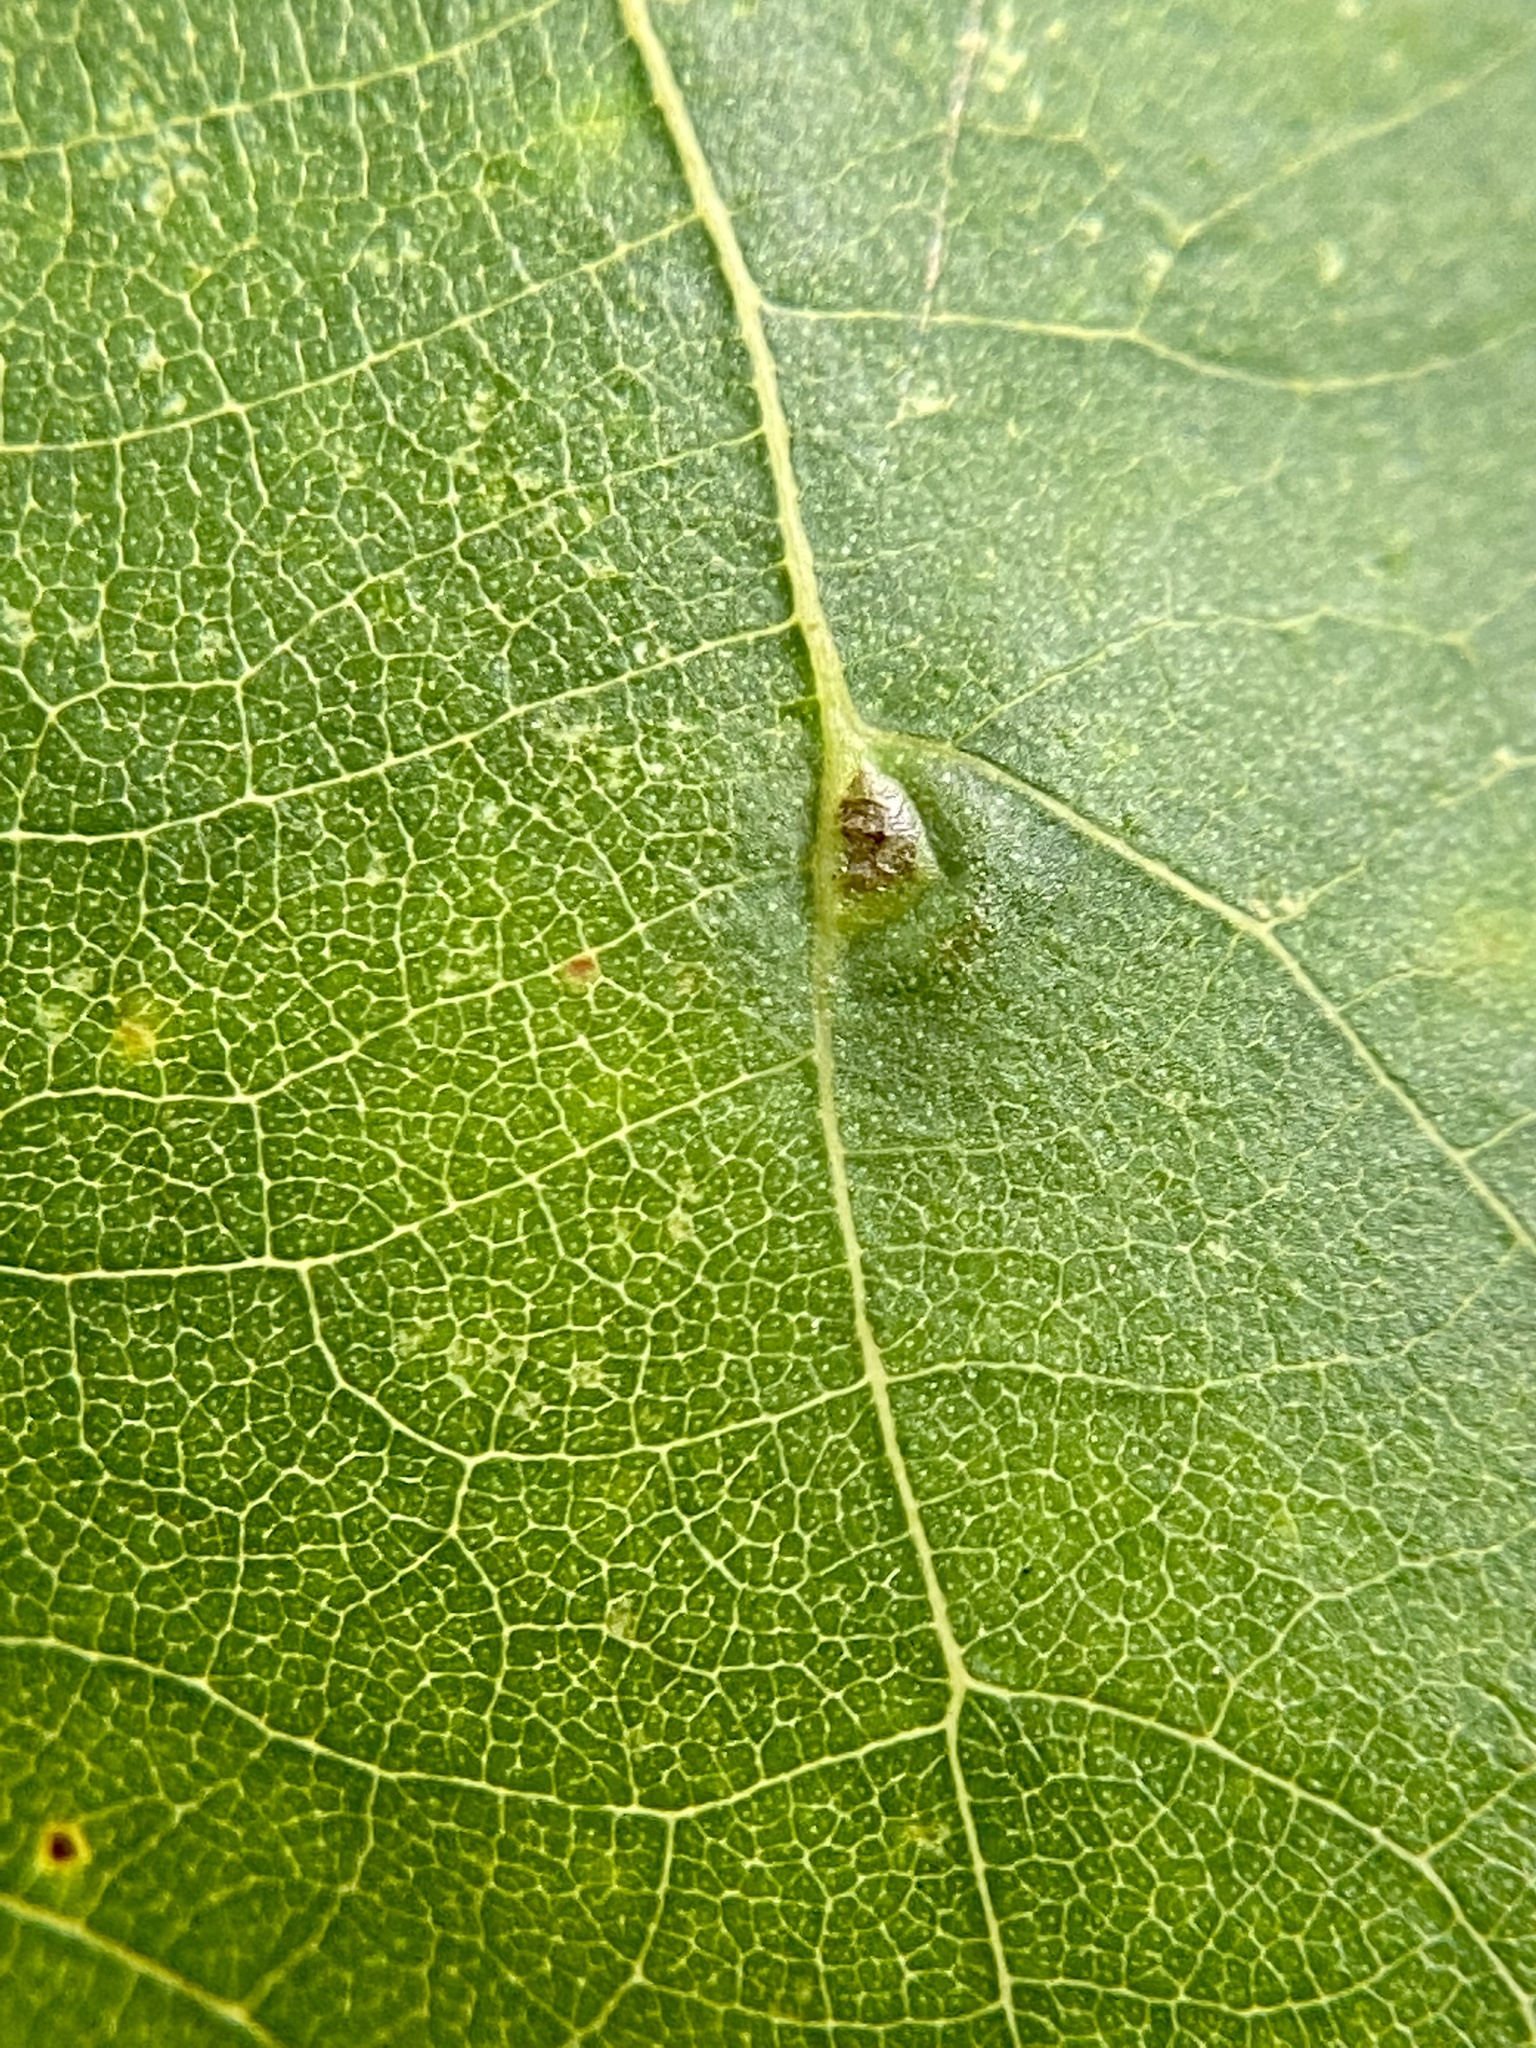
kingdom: Animalia
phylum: Arthropoda
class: Insecta
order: Diptera
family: Cecidomyiidae
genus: Caryomyia
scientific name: Caryomyia caryaecola
